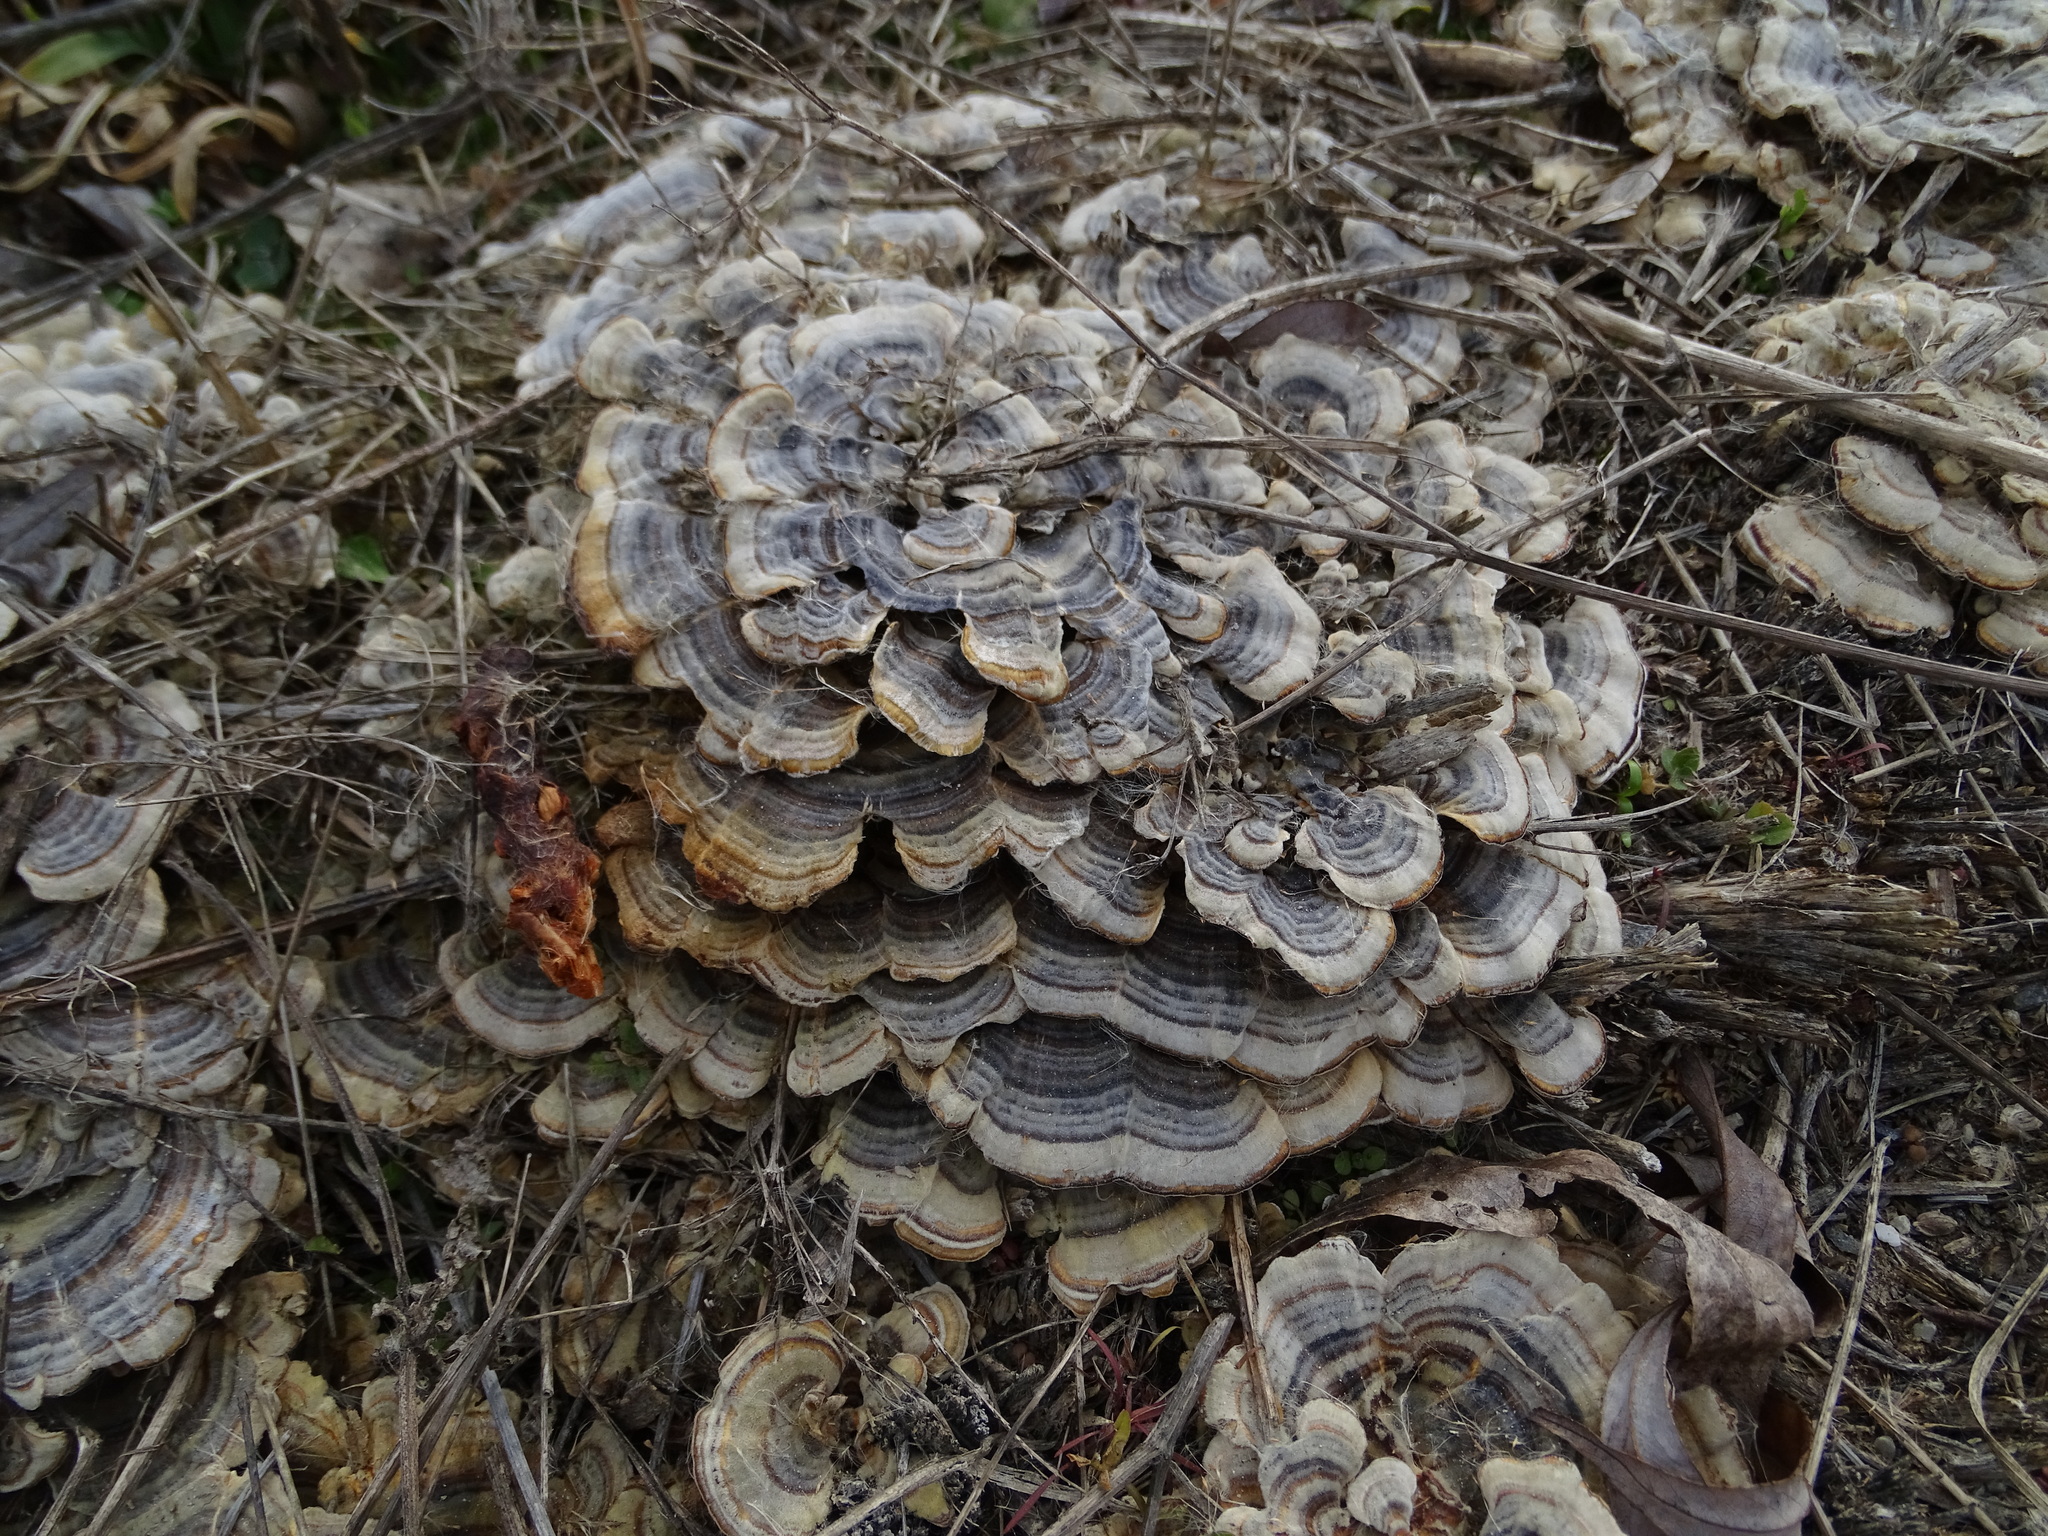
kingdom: Fungi
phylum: Basidiomycota
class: Agaricomycetes
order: Polyporales
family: Polyporaceae
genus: Trametes
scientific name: Trametes versicolor
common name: Turkeytail
